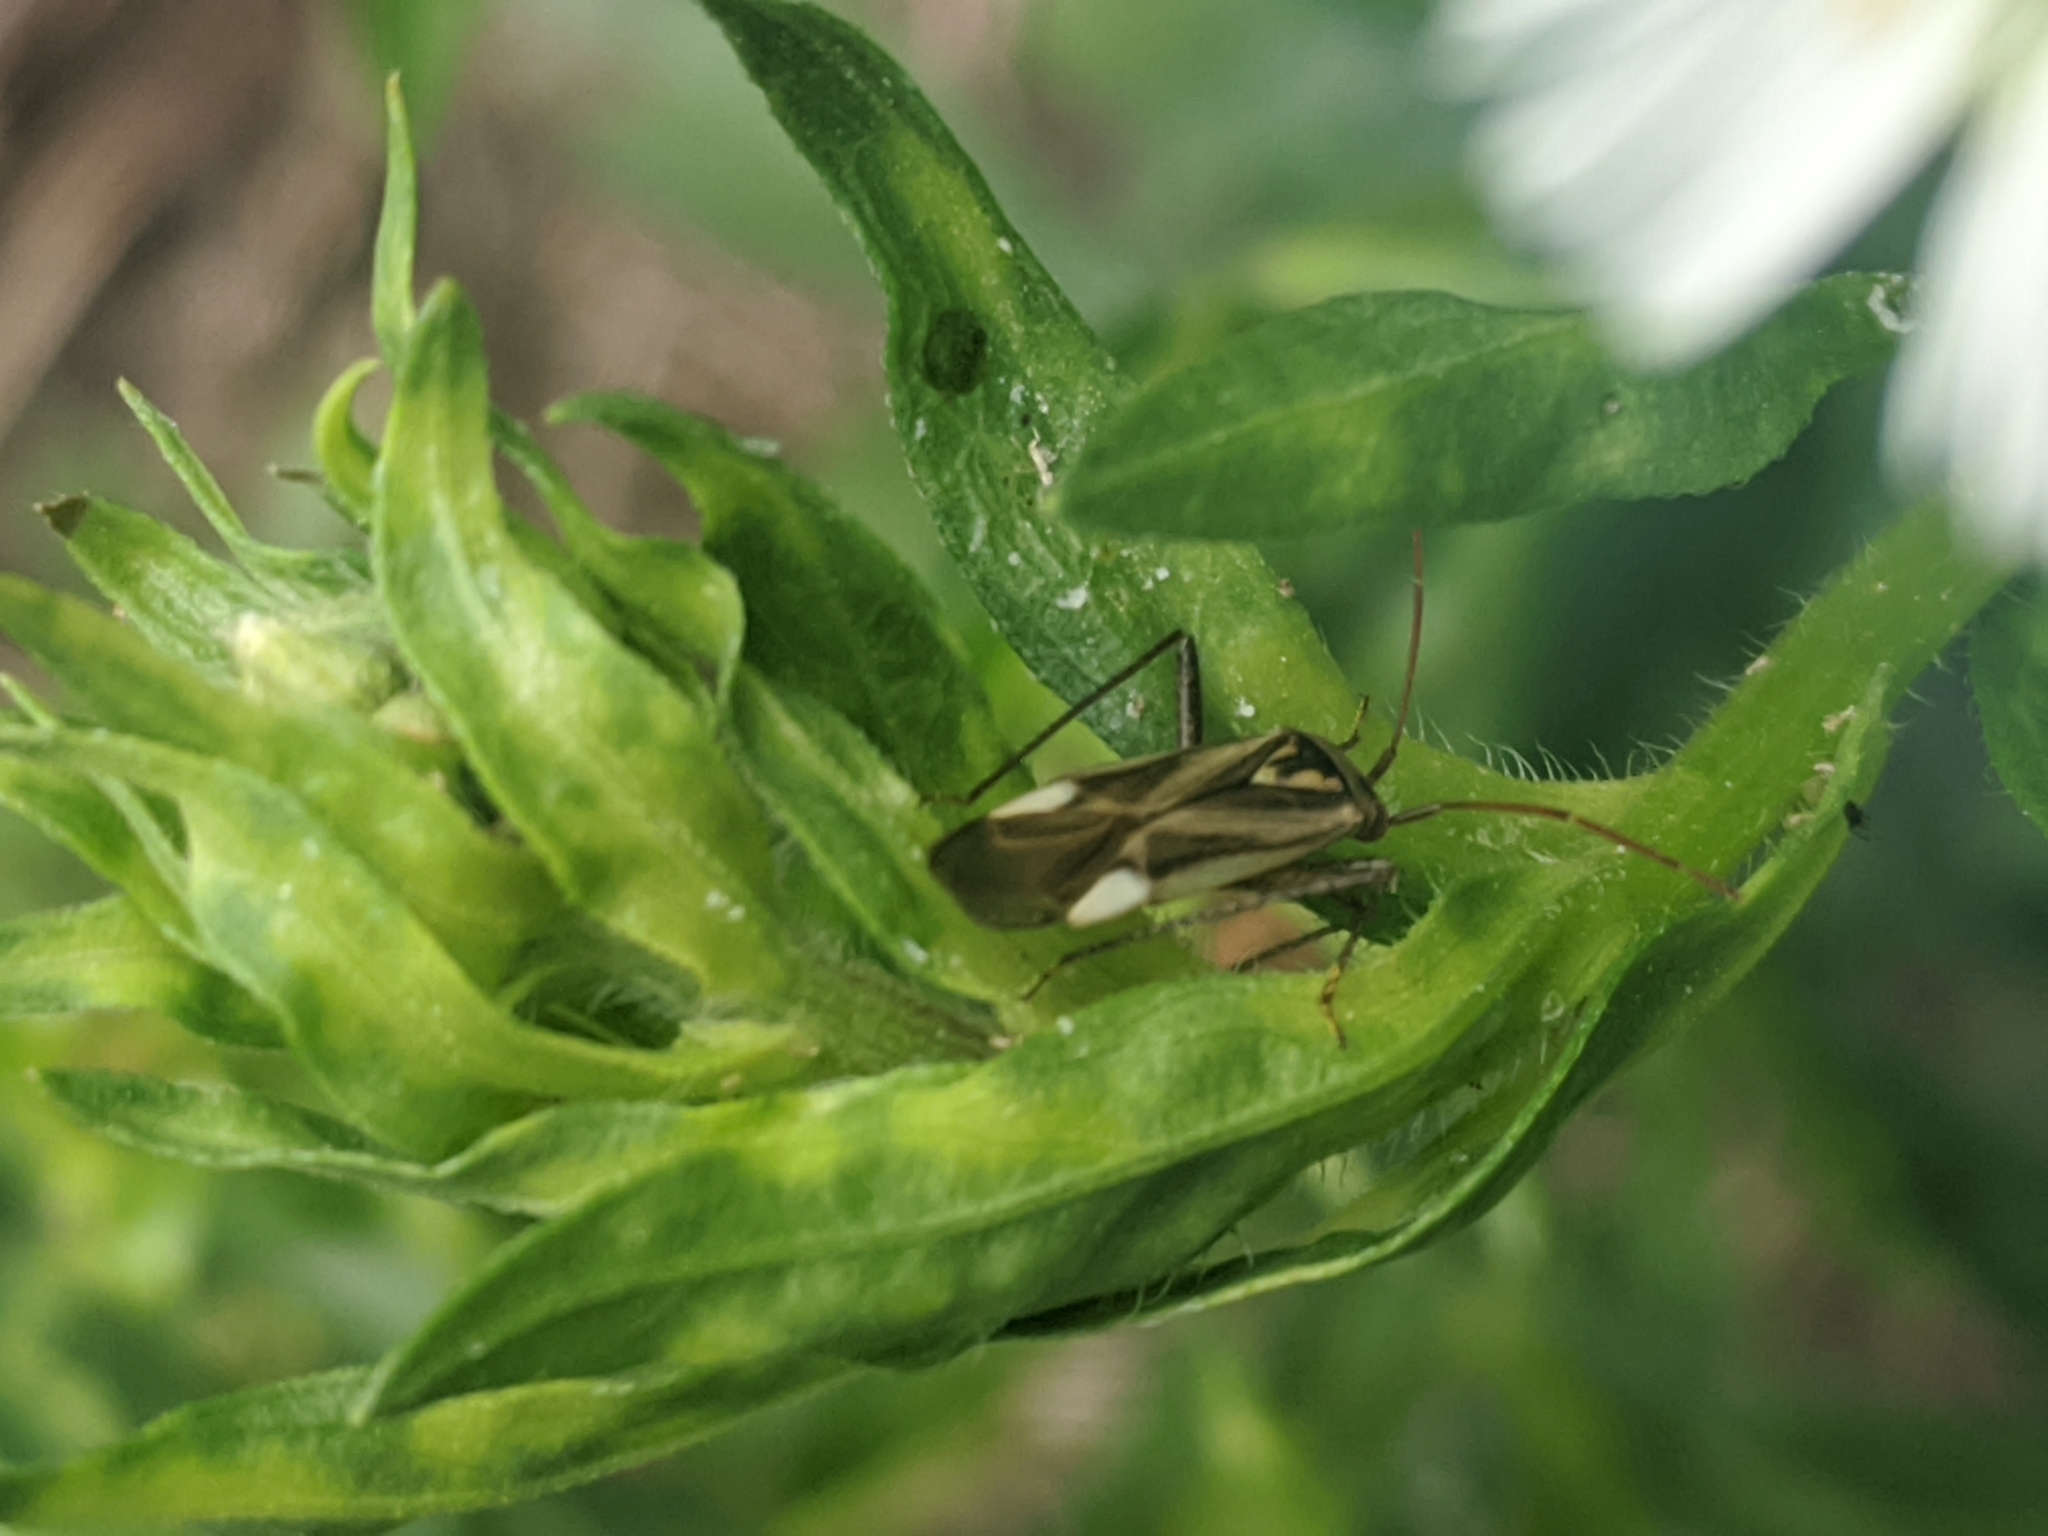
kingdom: Animalia
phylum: Arthropoda
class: Insecta
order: Hemiptera
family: Miridae
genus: Adelphocoris
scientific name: Adelphocoris lineolatus
